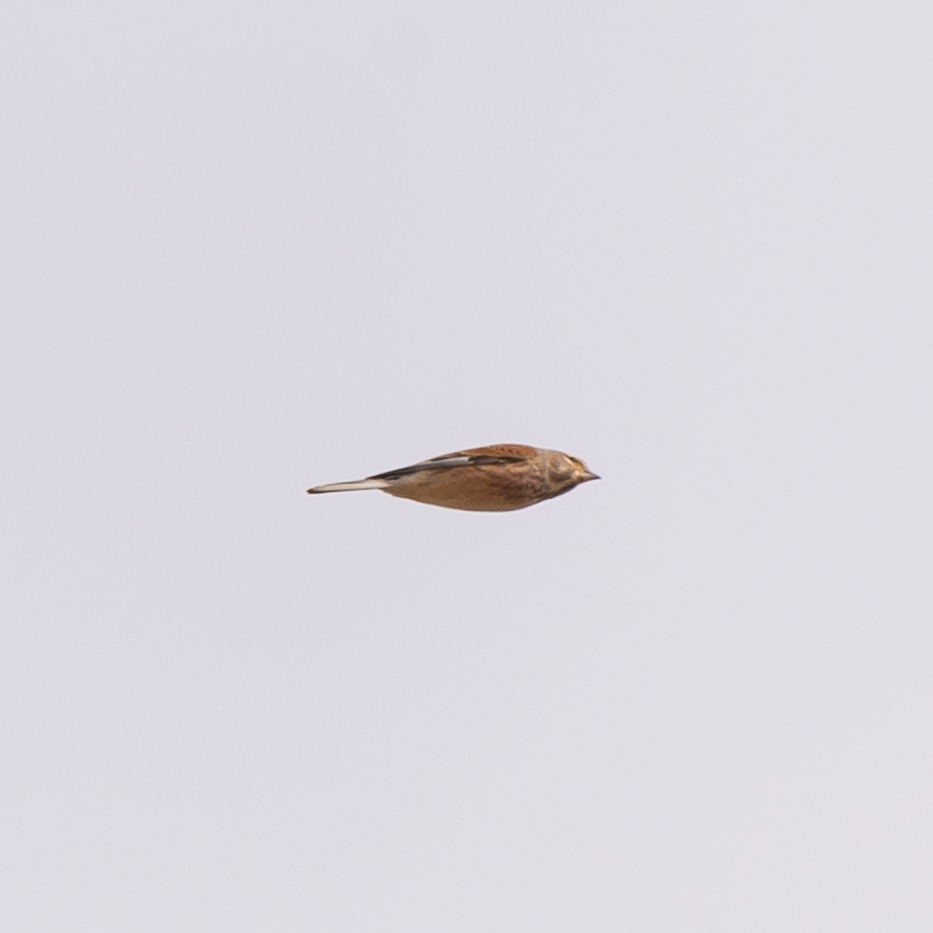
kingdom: Animalia
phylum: Chordata
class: Aves
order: Passeriformes
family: Fringillidae
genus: Linaria
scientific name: Linaria cannabina
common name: Common linnet
